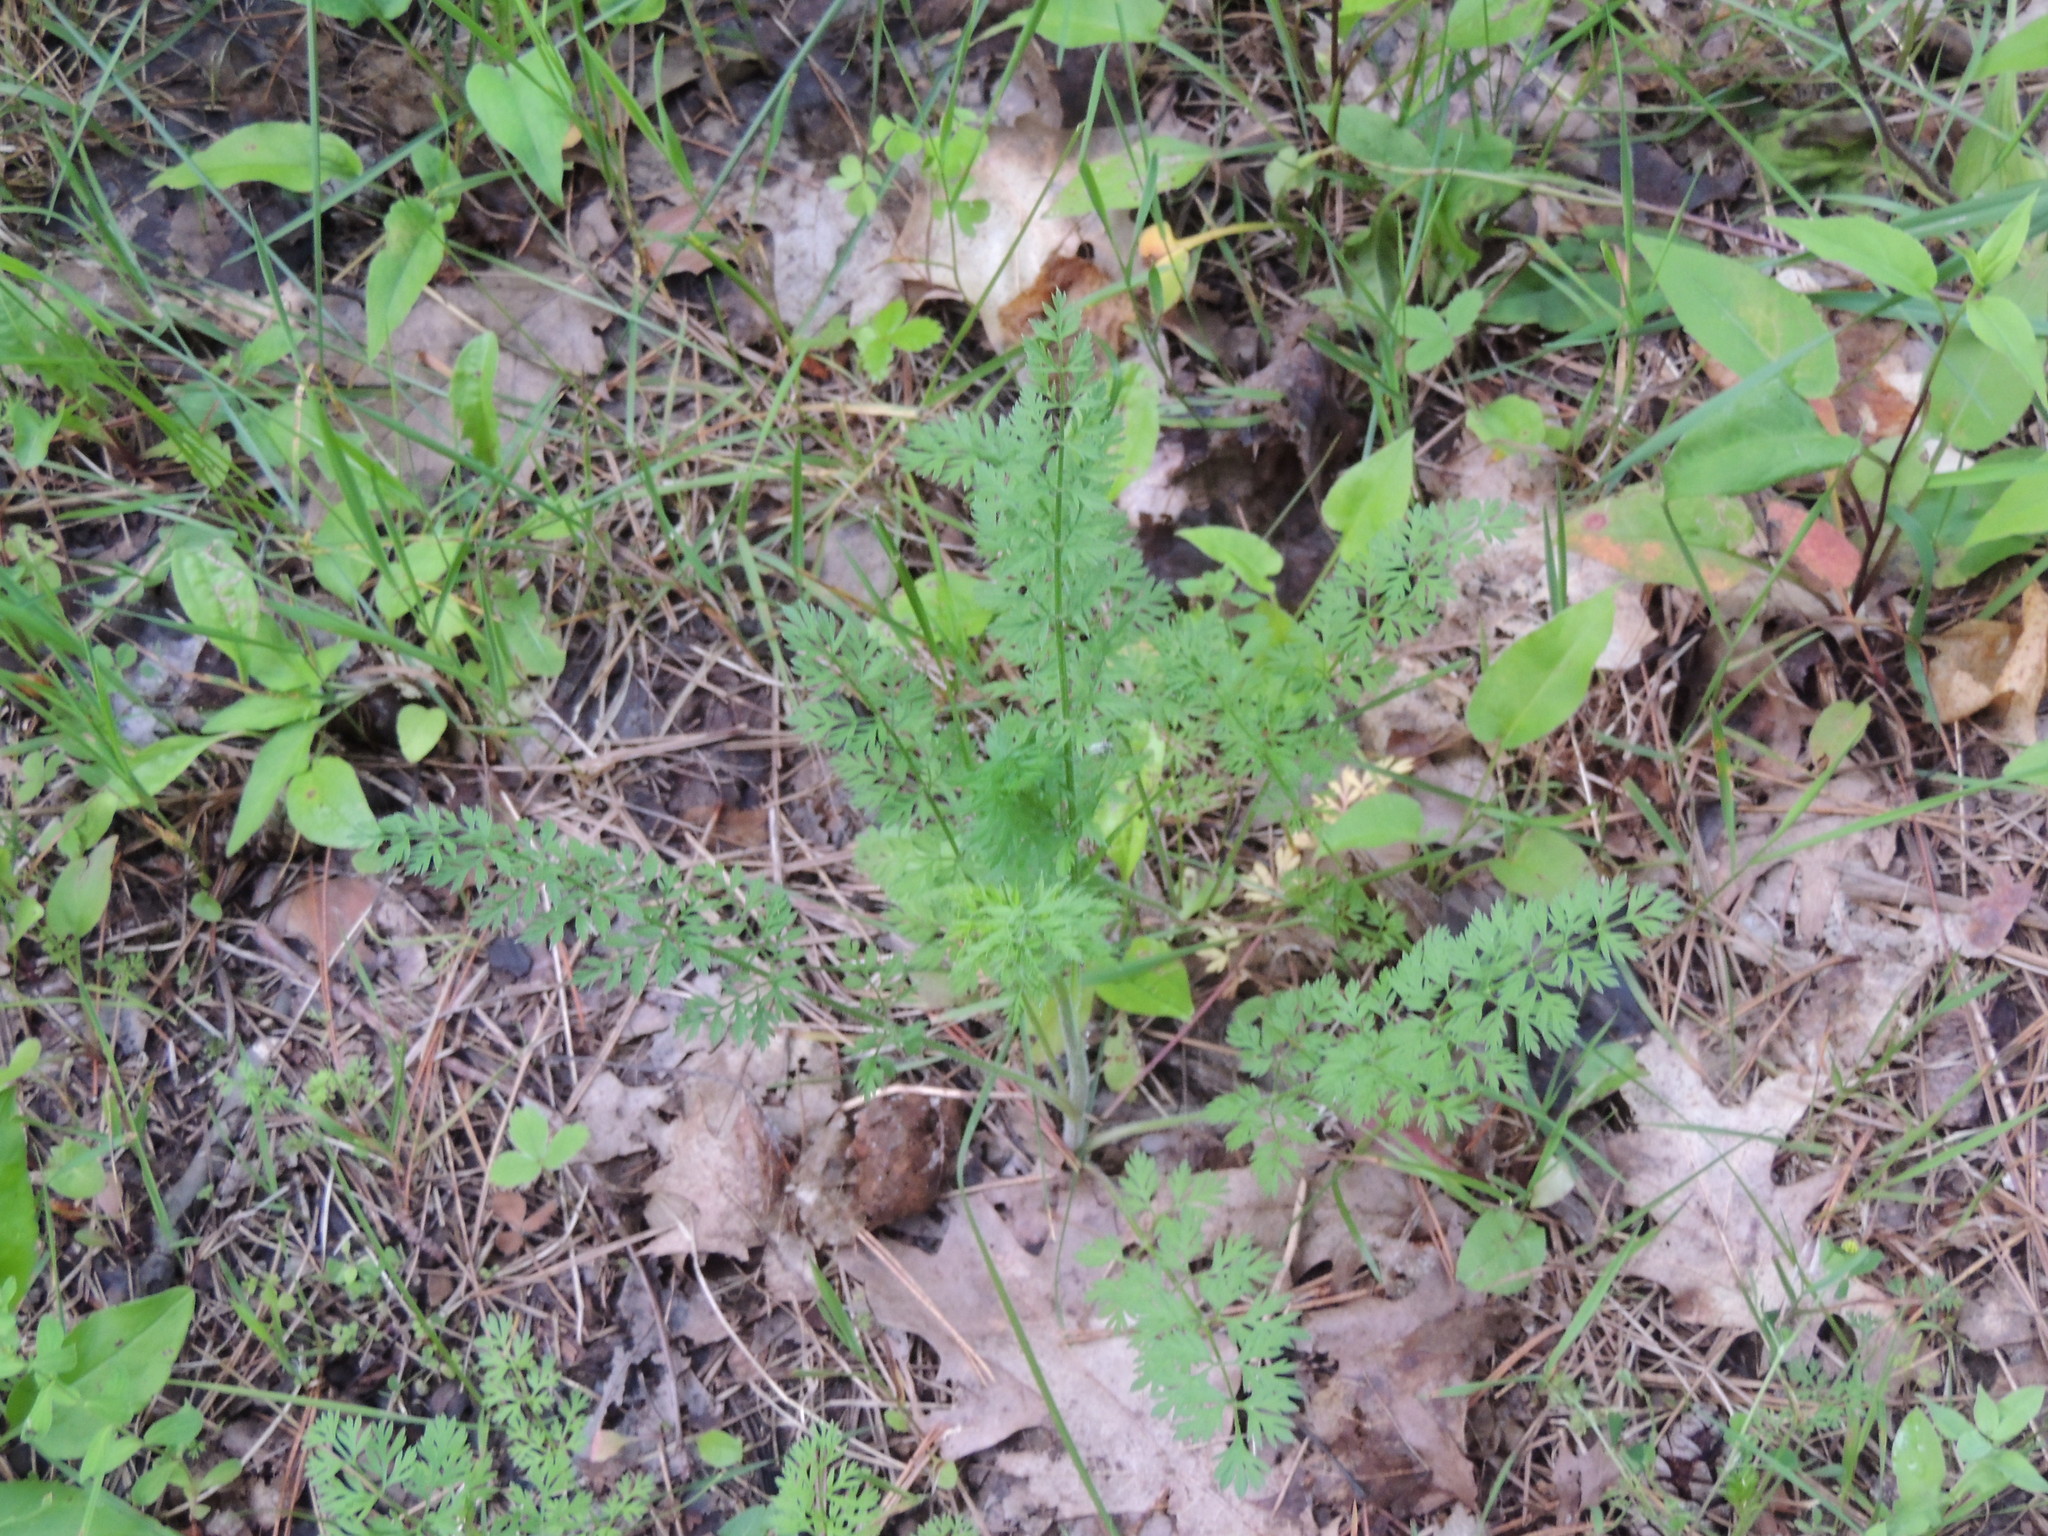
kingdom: Plantae
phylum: Tracheophyta
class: Magnoliopsida
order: Apiales
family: Apiaceae
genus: Daucus
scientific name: Daucus carota
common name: Wild carrot
